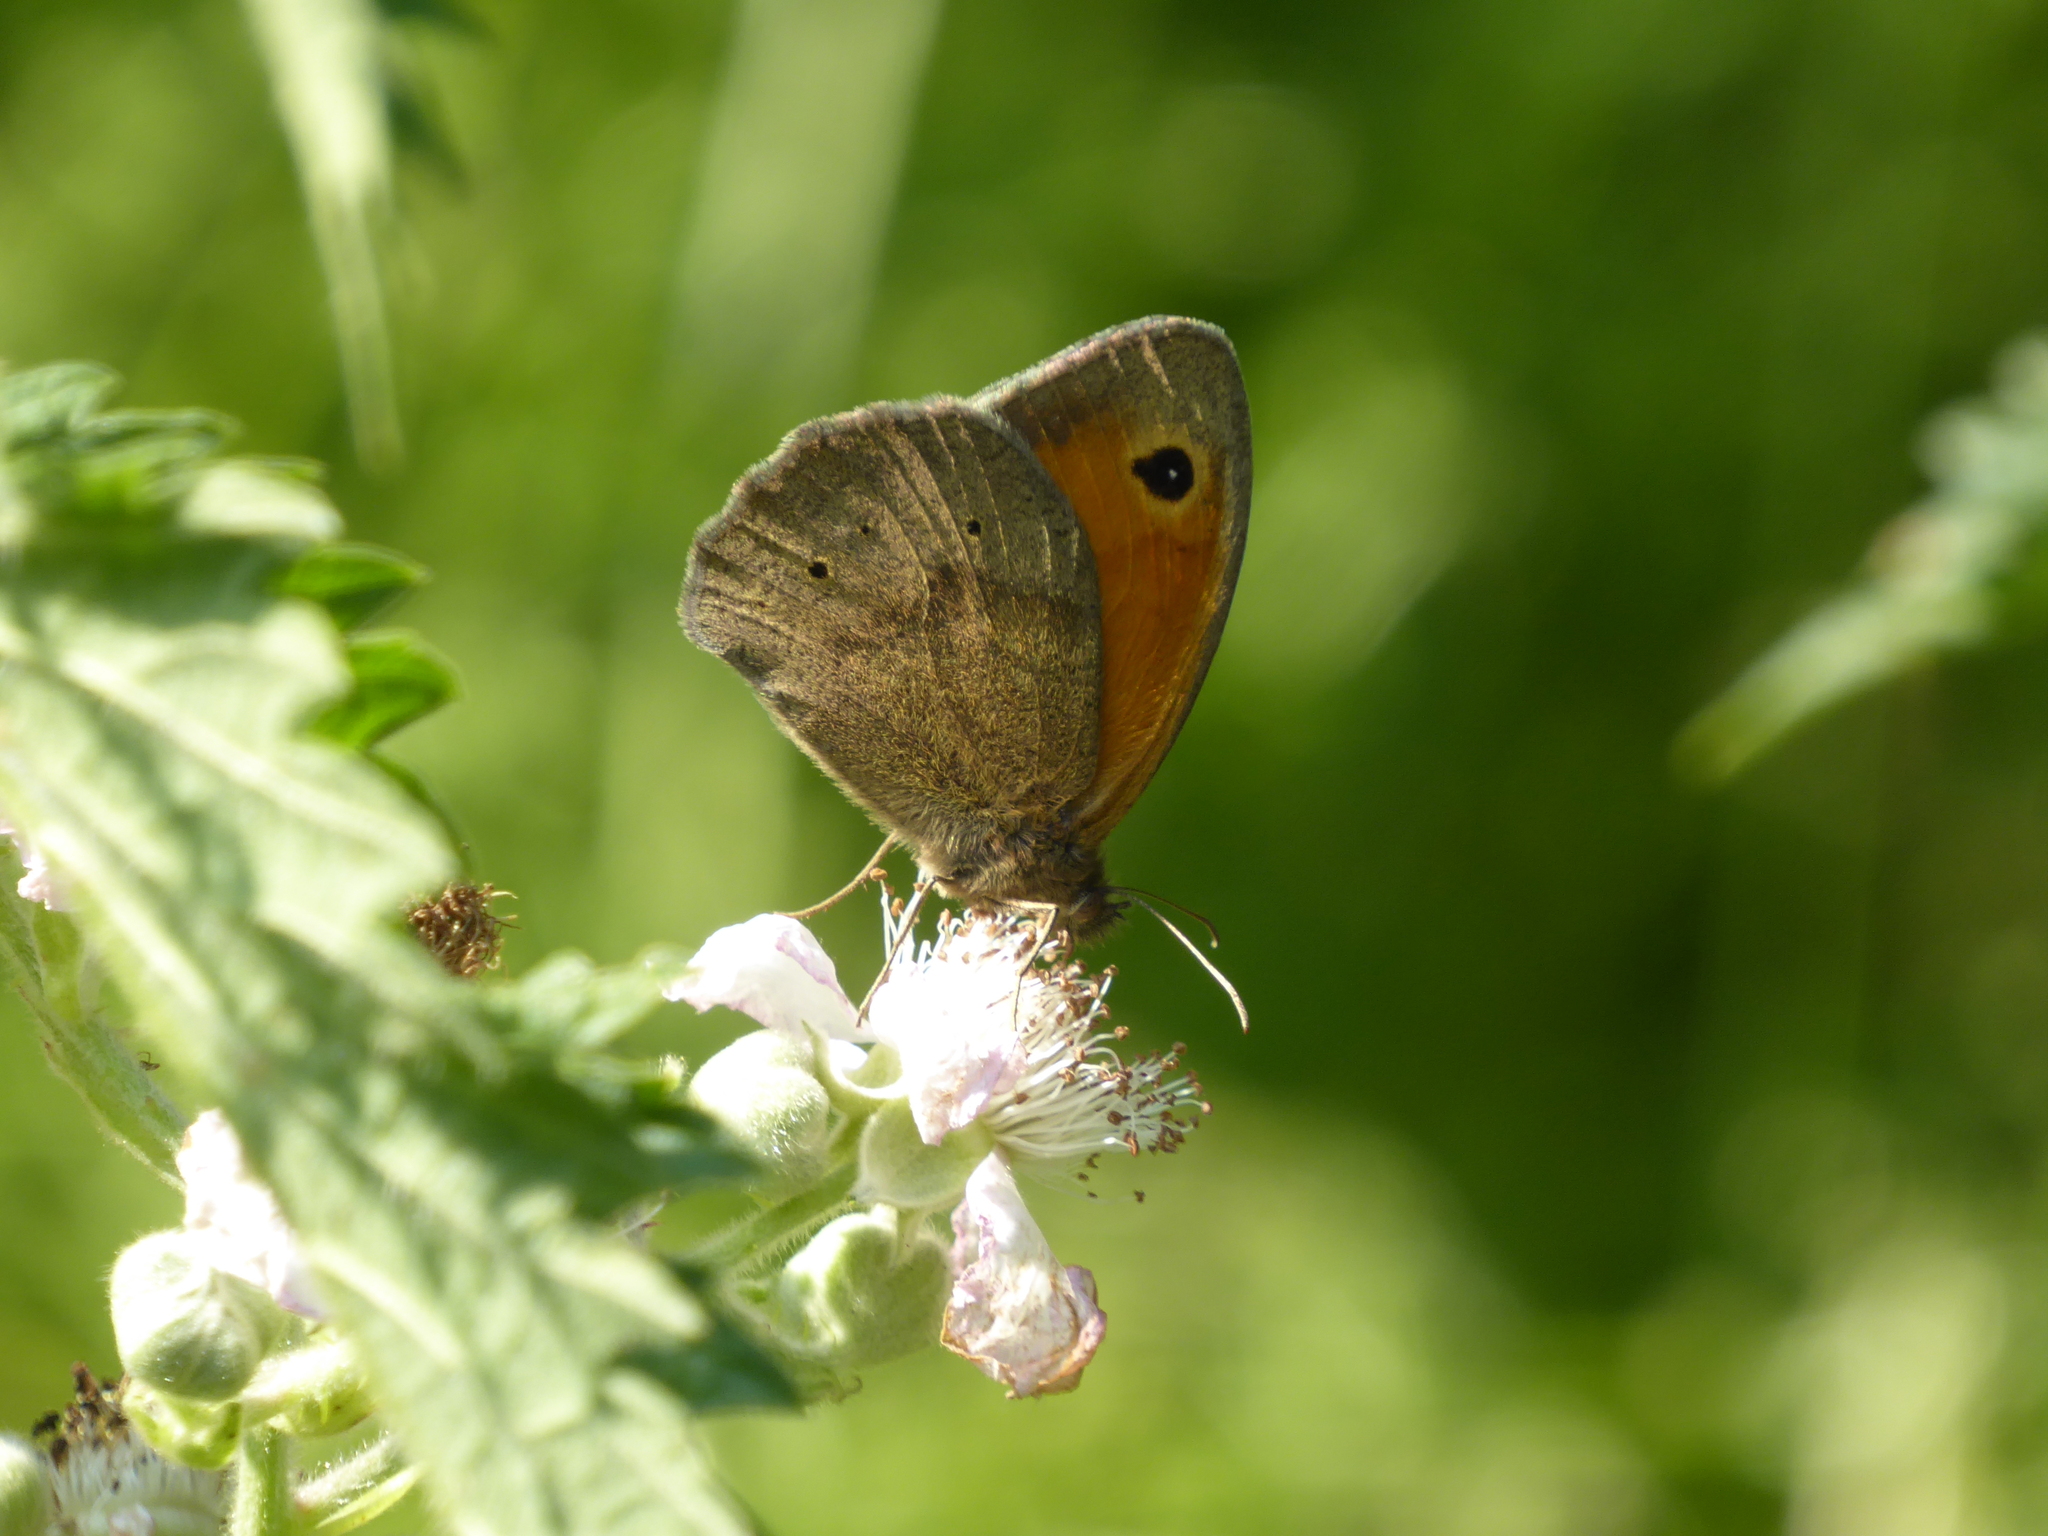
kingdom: Animalia
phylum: Arthropoda
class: Insecta
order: Lepidoptera
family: Nymphalidae
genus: Maniola
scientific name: Maniola jurtina
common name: Meadow brown
